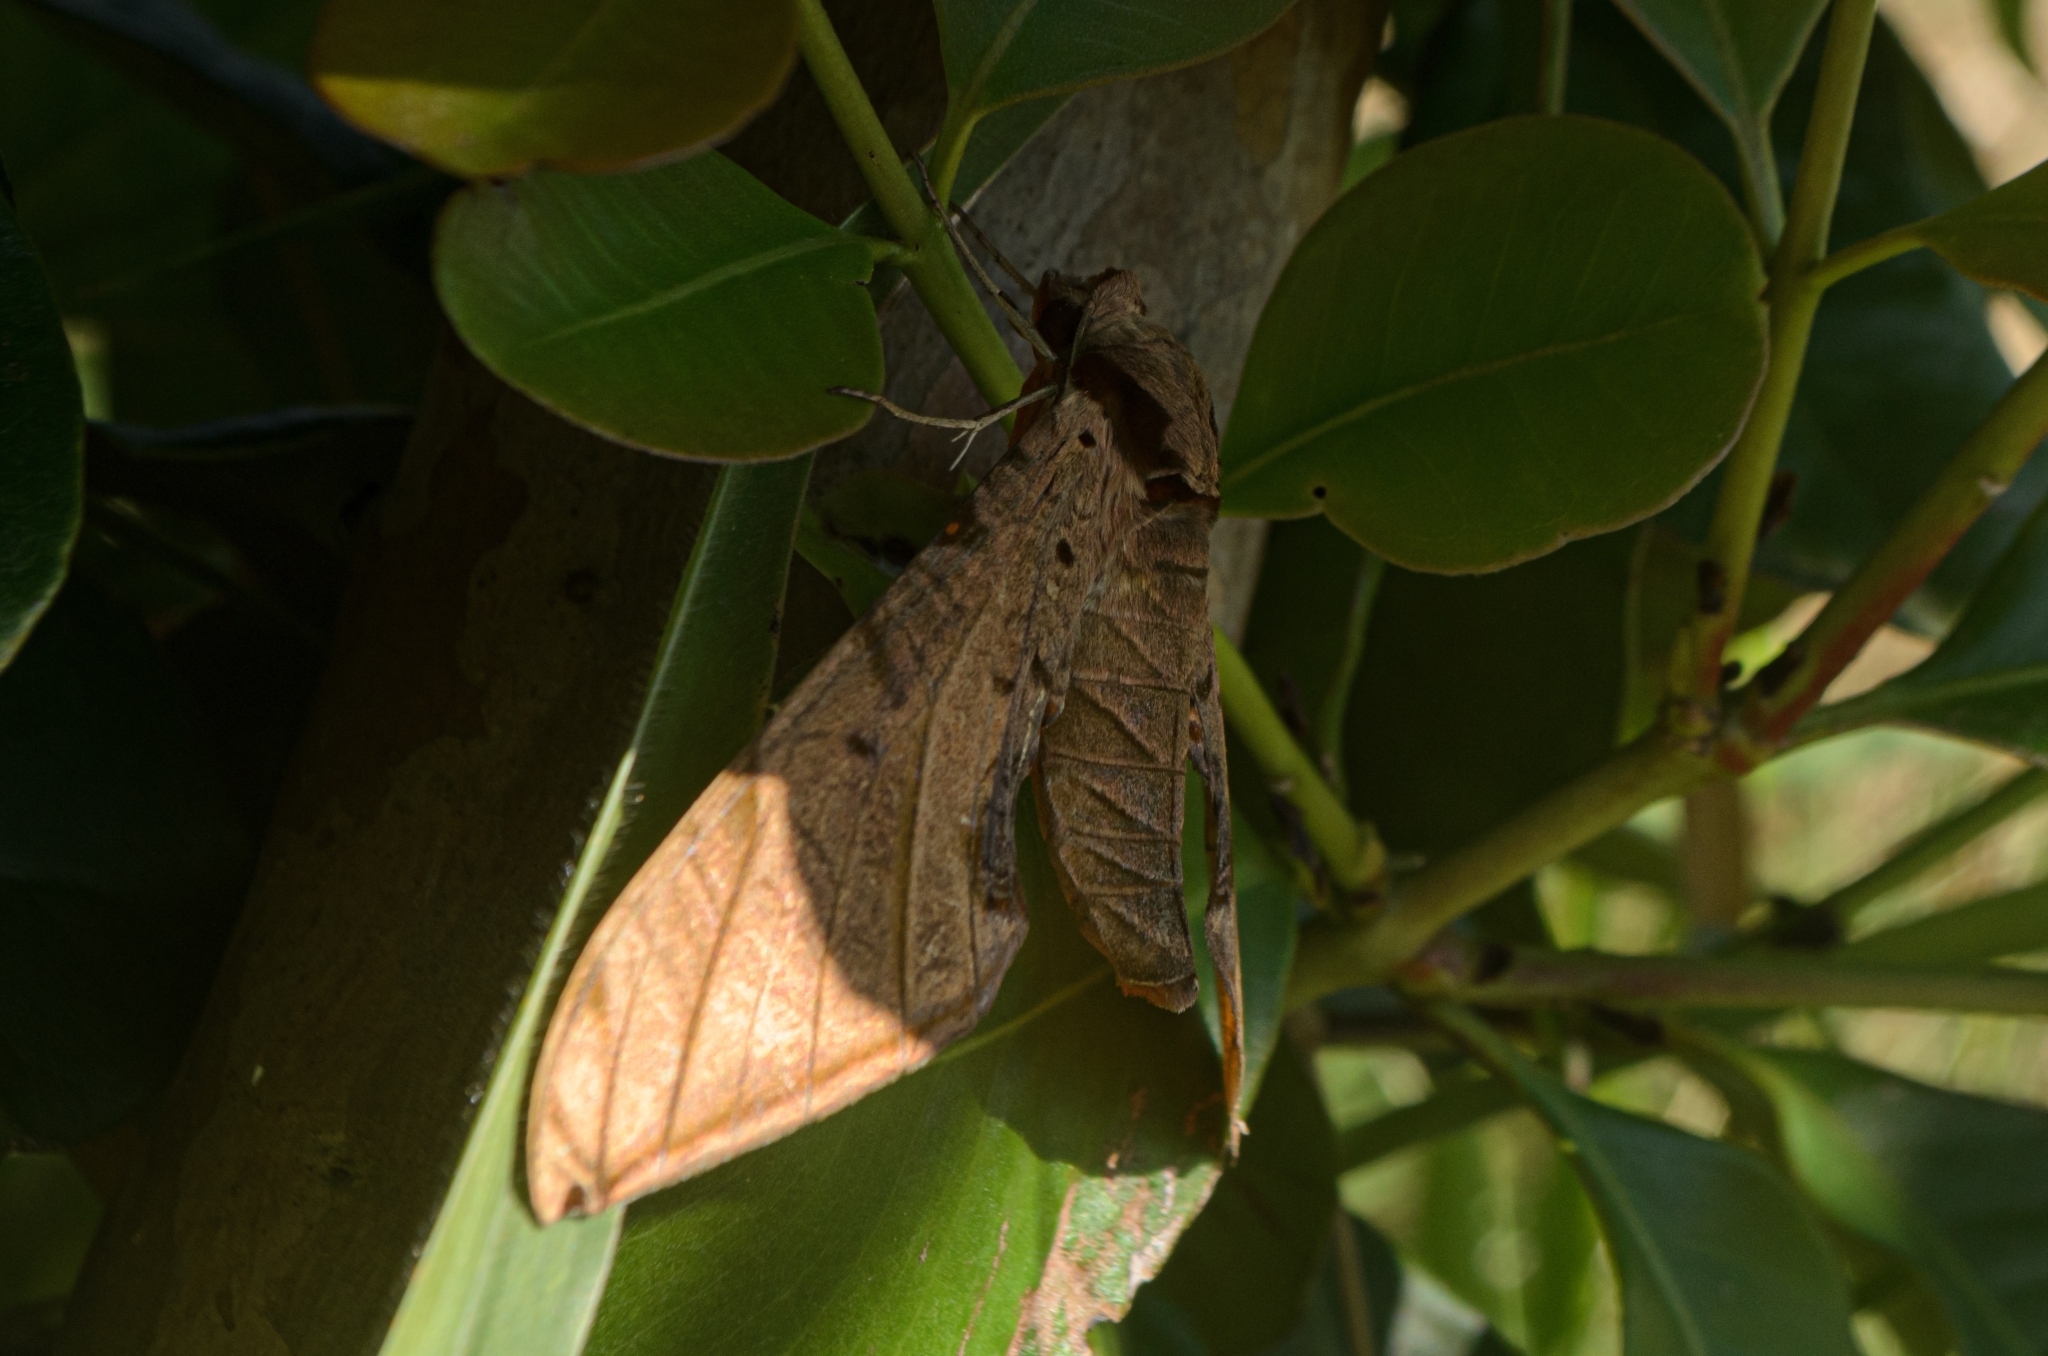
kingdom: Animalia
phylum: Arthropoda
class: Insecta
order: Lepidoptera
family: Sphingidae
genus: Protambulyx
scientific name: Protambulyx strigilis
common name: Streaked sphinx
